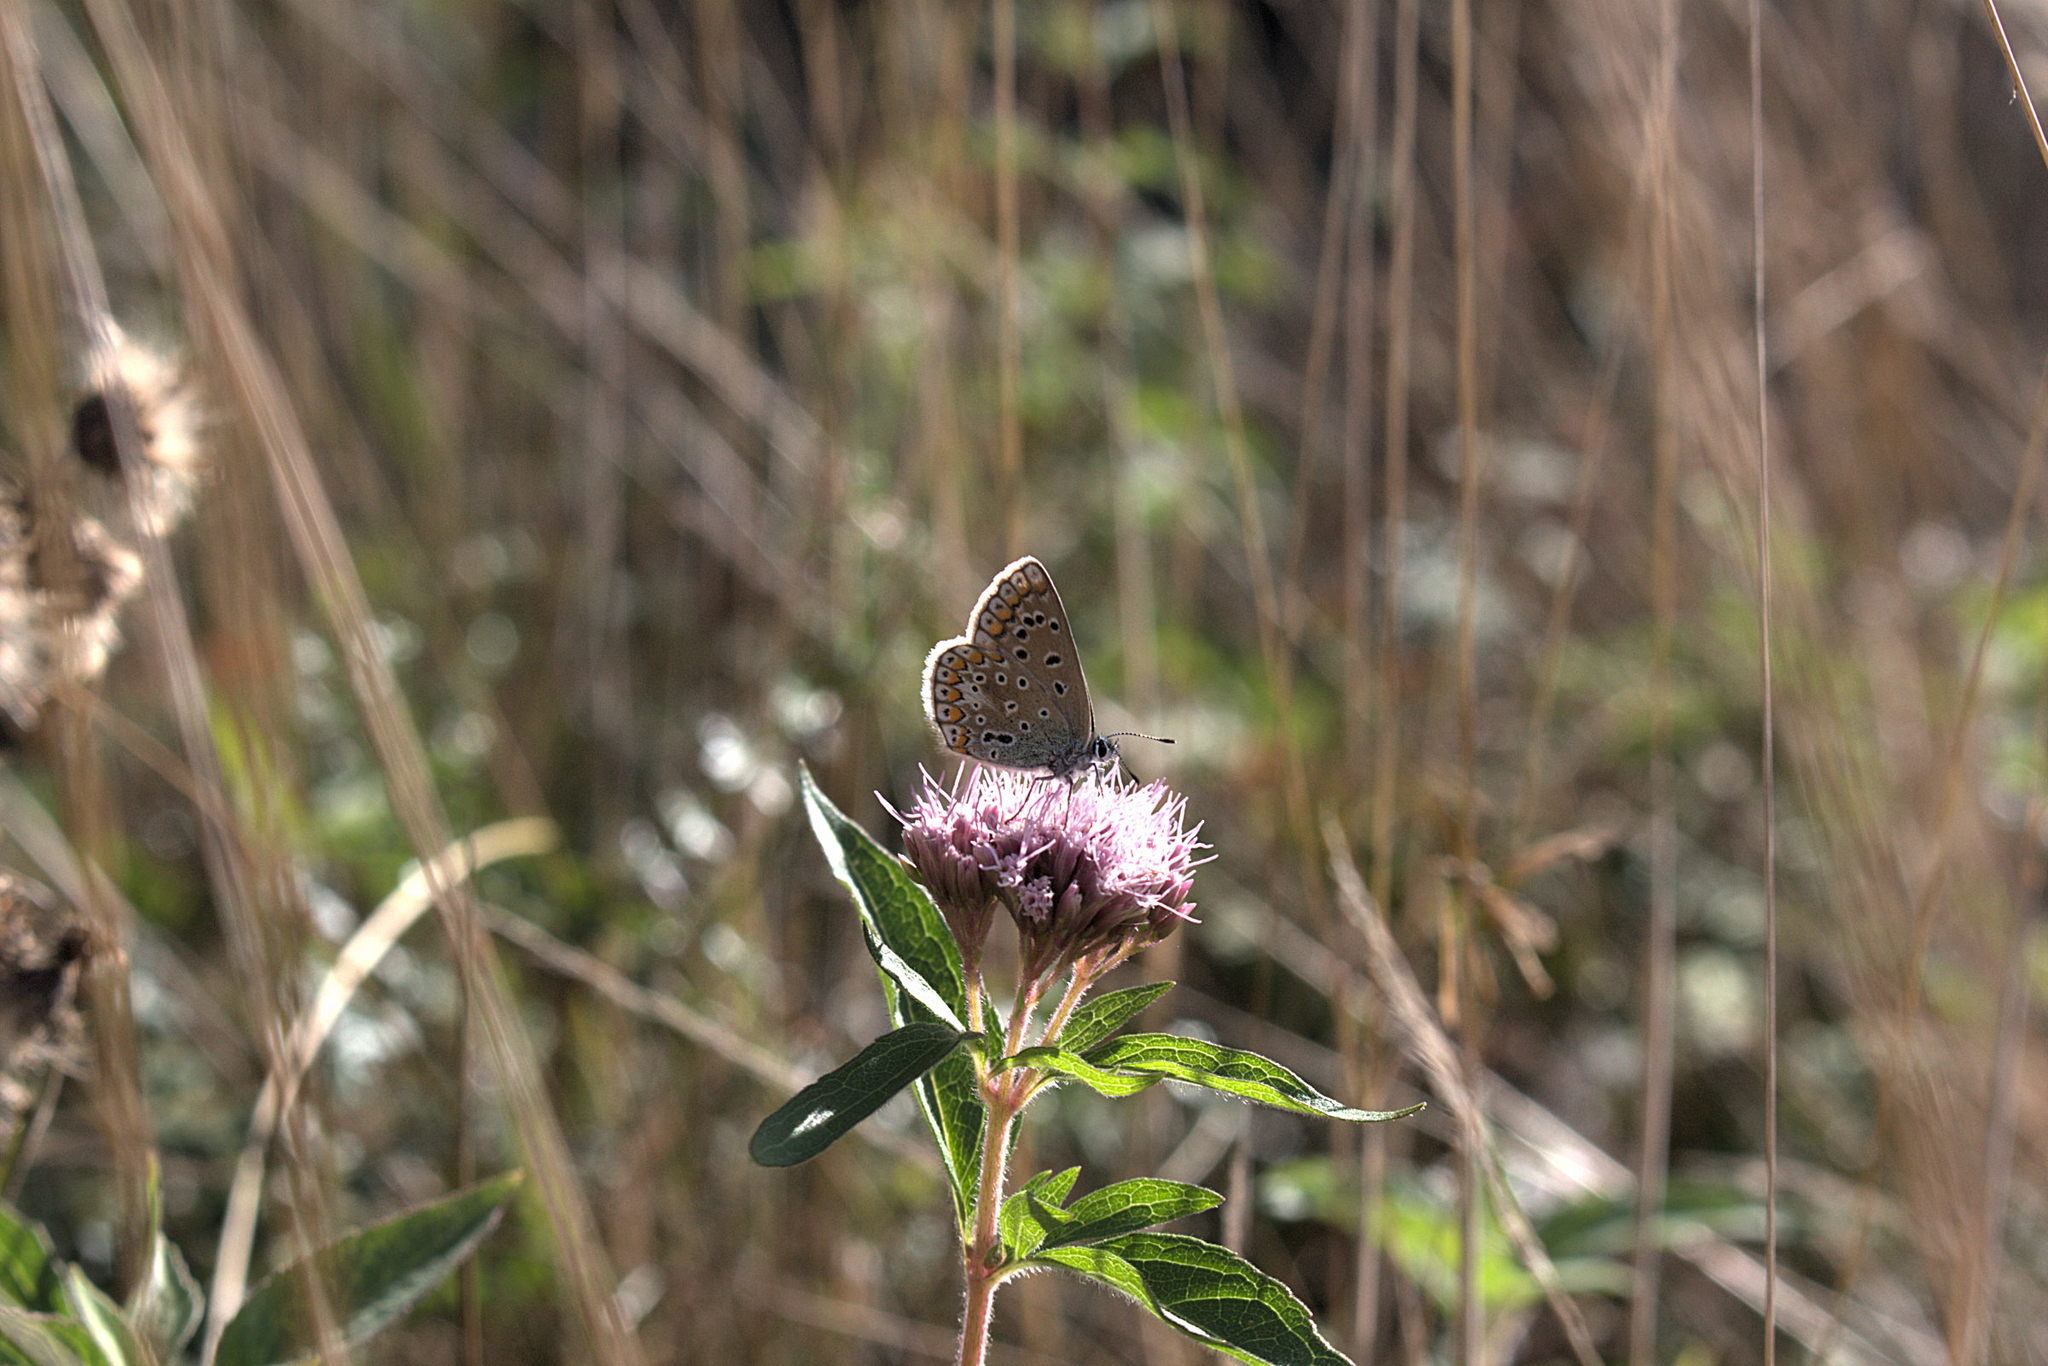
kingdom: Animalia
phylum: Arthropoda
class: Insecta
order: Lepidoptera
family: Lycaenidae
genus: Polyommatus
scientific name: Polyommatus icarus
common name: Common blue
